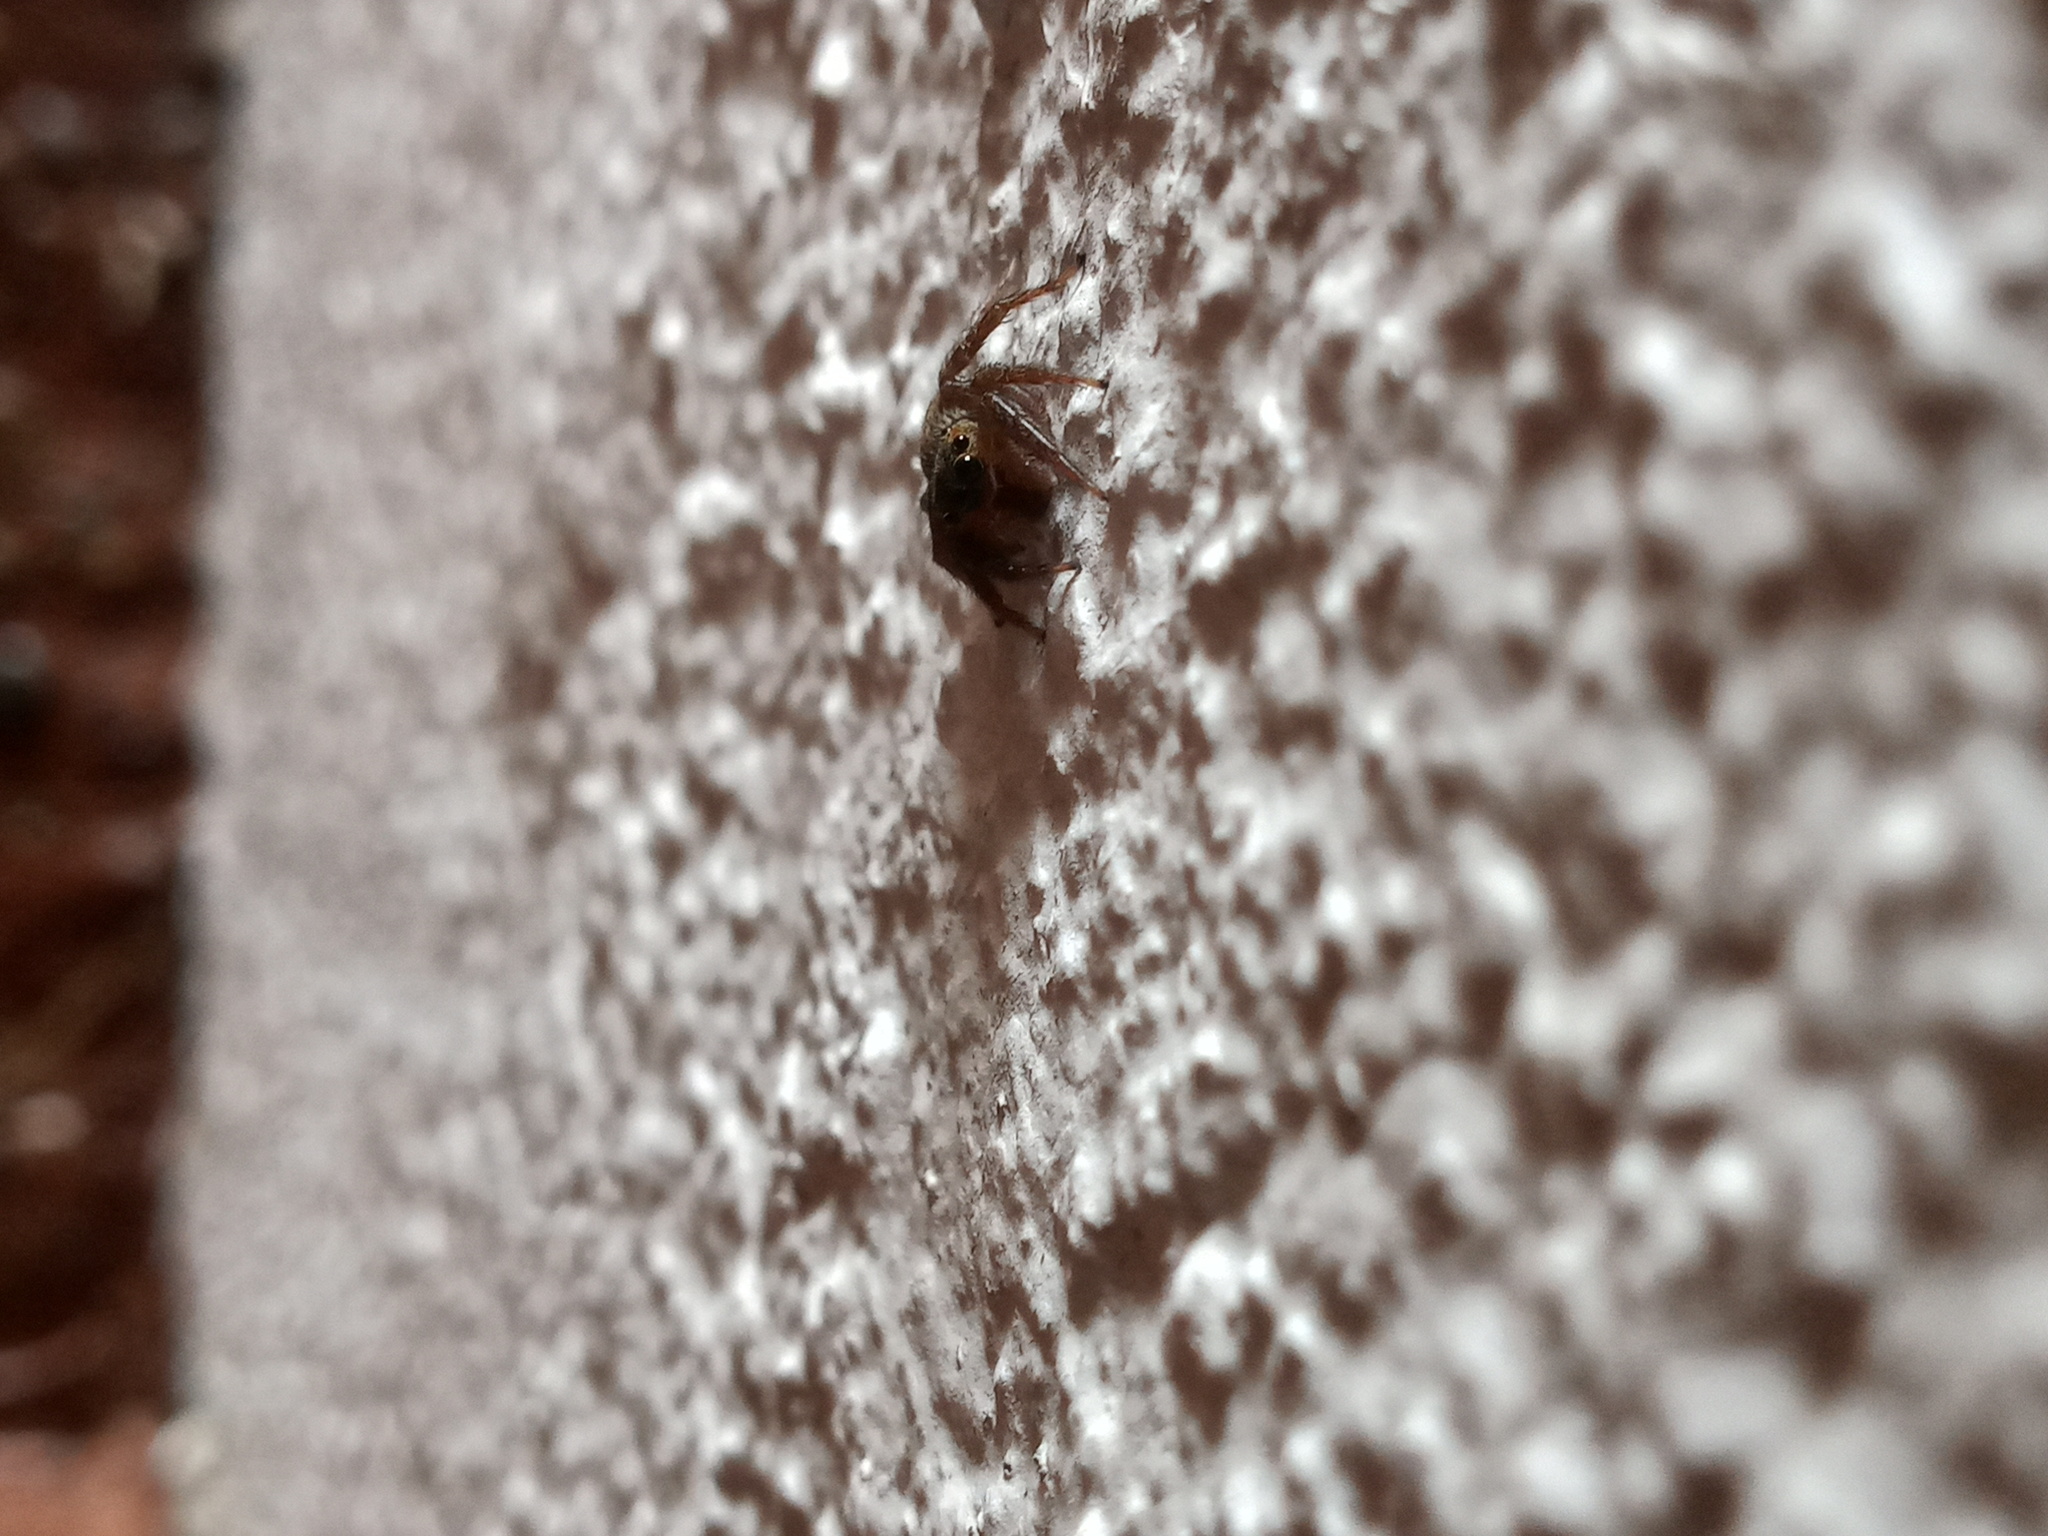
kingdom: Animalia
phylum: Arthropoda
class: Arachnida
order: Araneae
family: Salticidae
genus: Hasarius
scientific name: Hasarius adansoni
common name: Jumping spider
